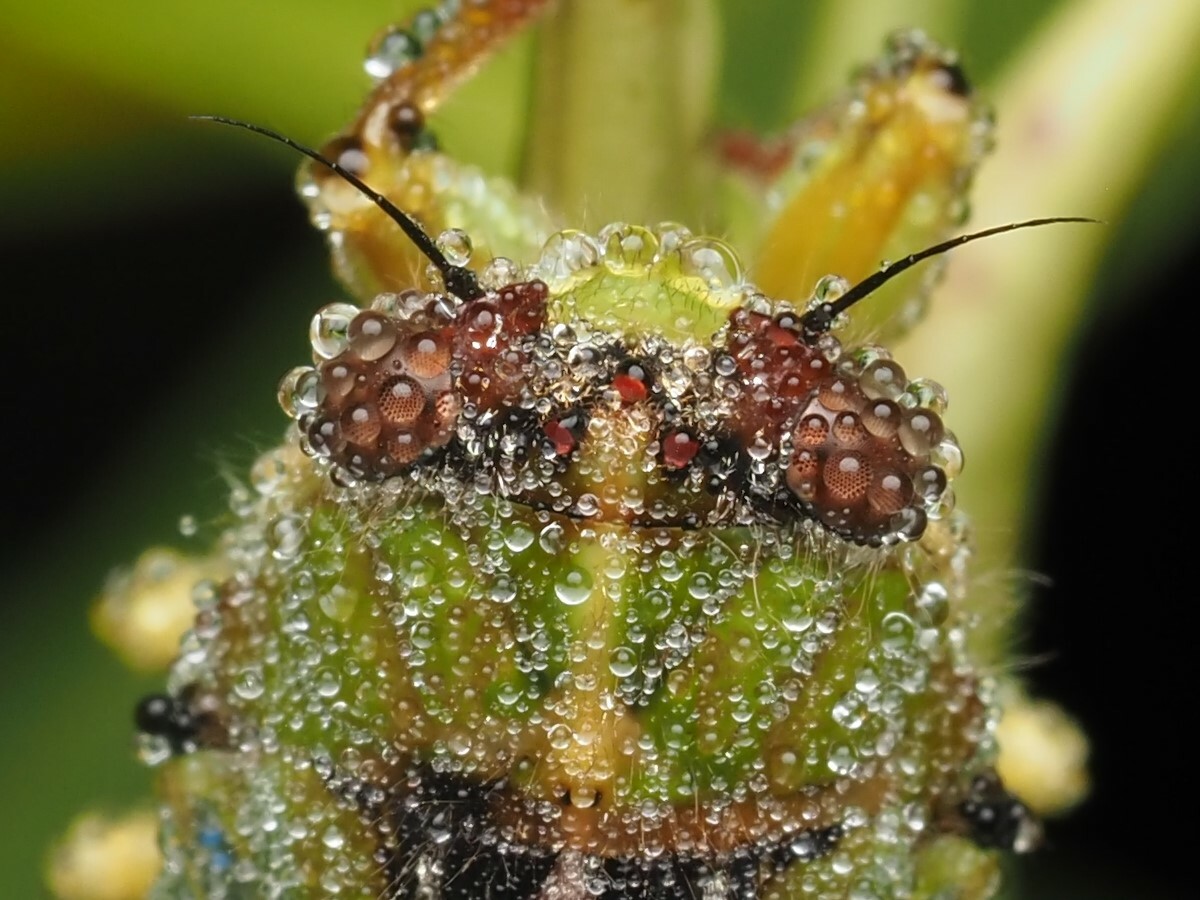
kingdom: Animalia
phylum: Arthropoda
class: Insecta
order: Hemiptera
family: Cicadidae
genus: Kikihia
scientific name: Kikihia cutora
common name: Northern snoring cicada
